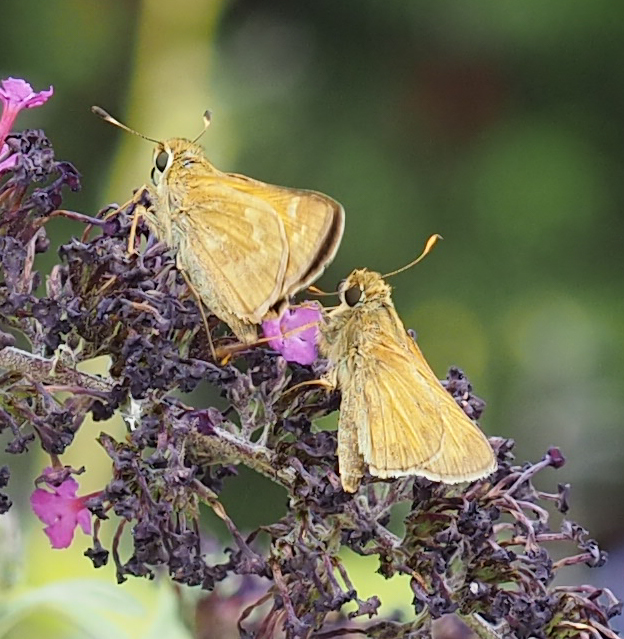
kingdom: Animalia
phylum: Arthropoda
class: Insecta
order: Lepidoptera
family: Hesperiidae
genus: Atalopedes
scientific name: Atalopedes
